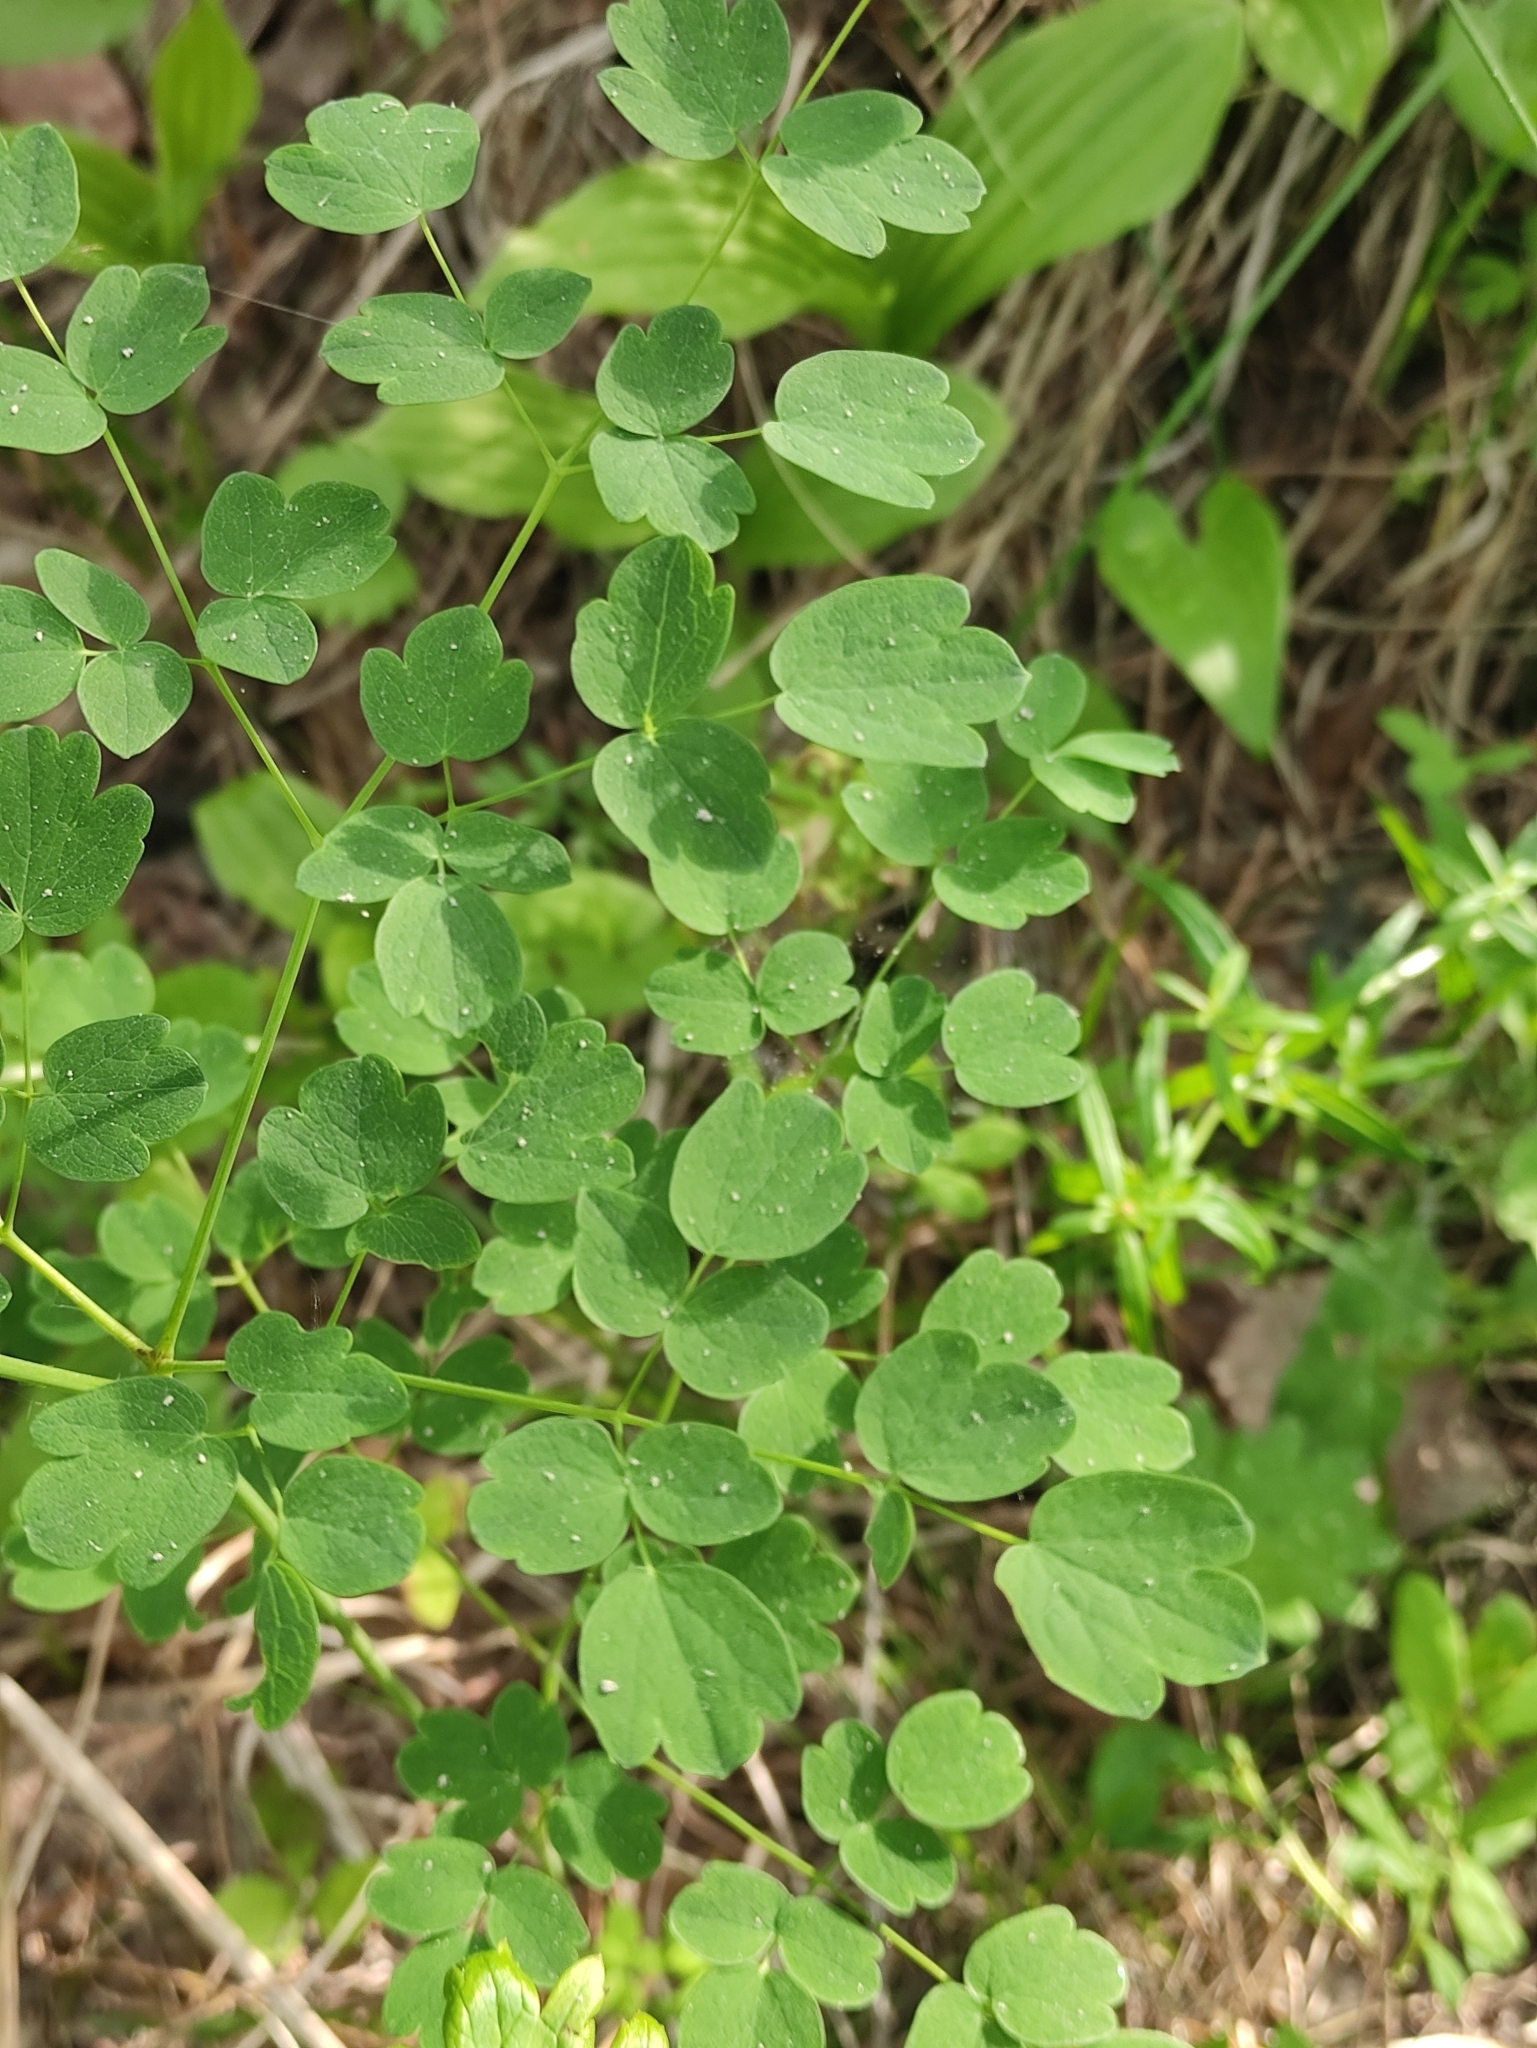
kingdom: Plantae
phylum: Tracheophyta
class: Magnoliopsida
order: Ranunculales
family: Ranunculaceae
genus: Thalictrum
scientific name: Thalictrum minus
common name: Lesser meadow-rue
